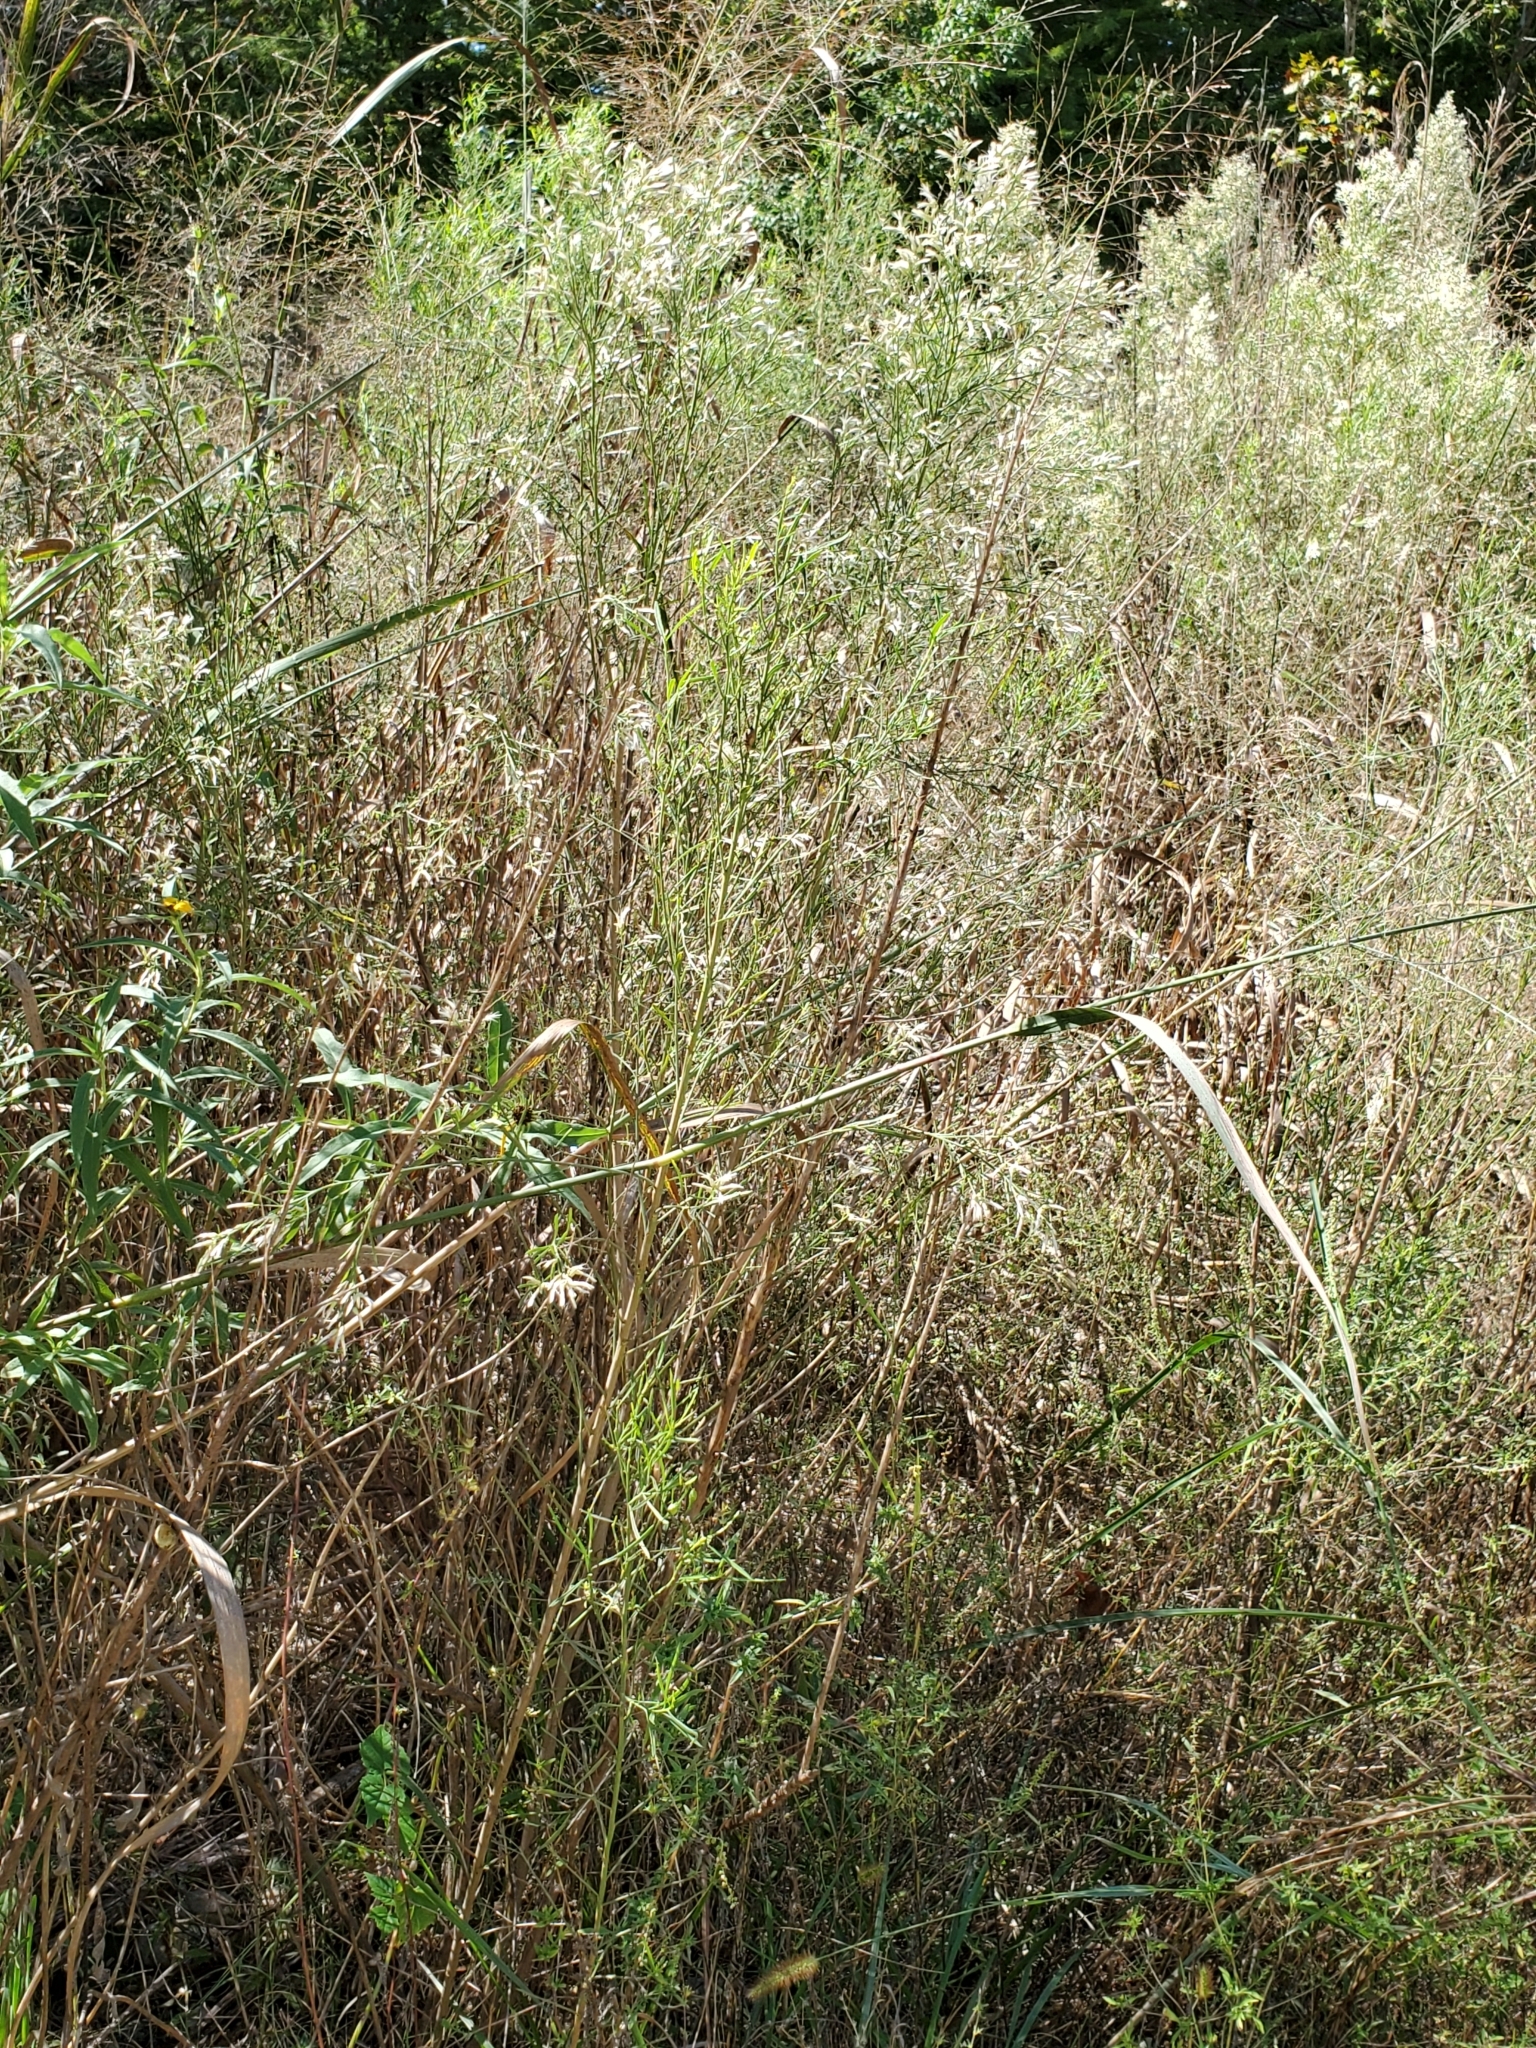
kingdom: Plantae
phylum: Tracheophyta
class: Magnoliopsida
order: Asterales
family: Asteraceae
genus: Baccharis
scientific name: Baccharis neglecta
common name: Roosevelt-weed
